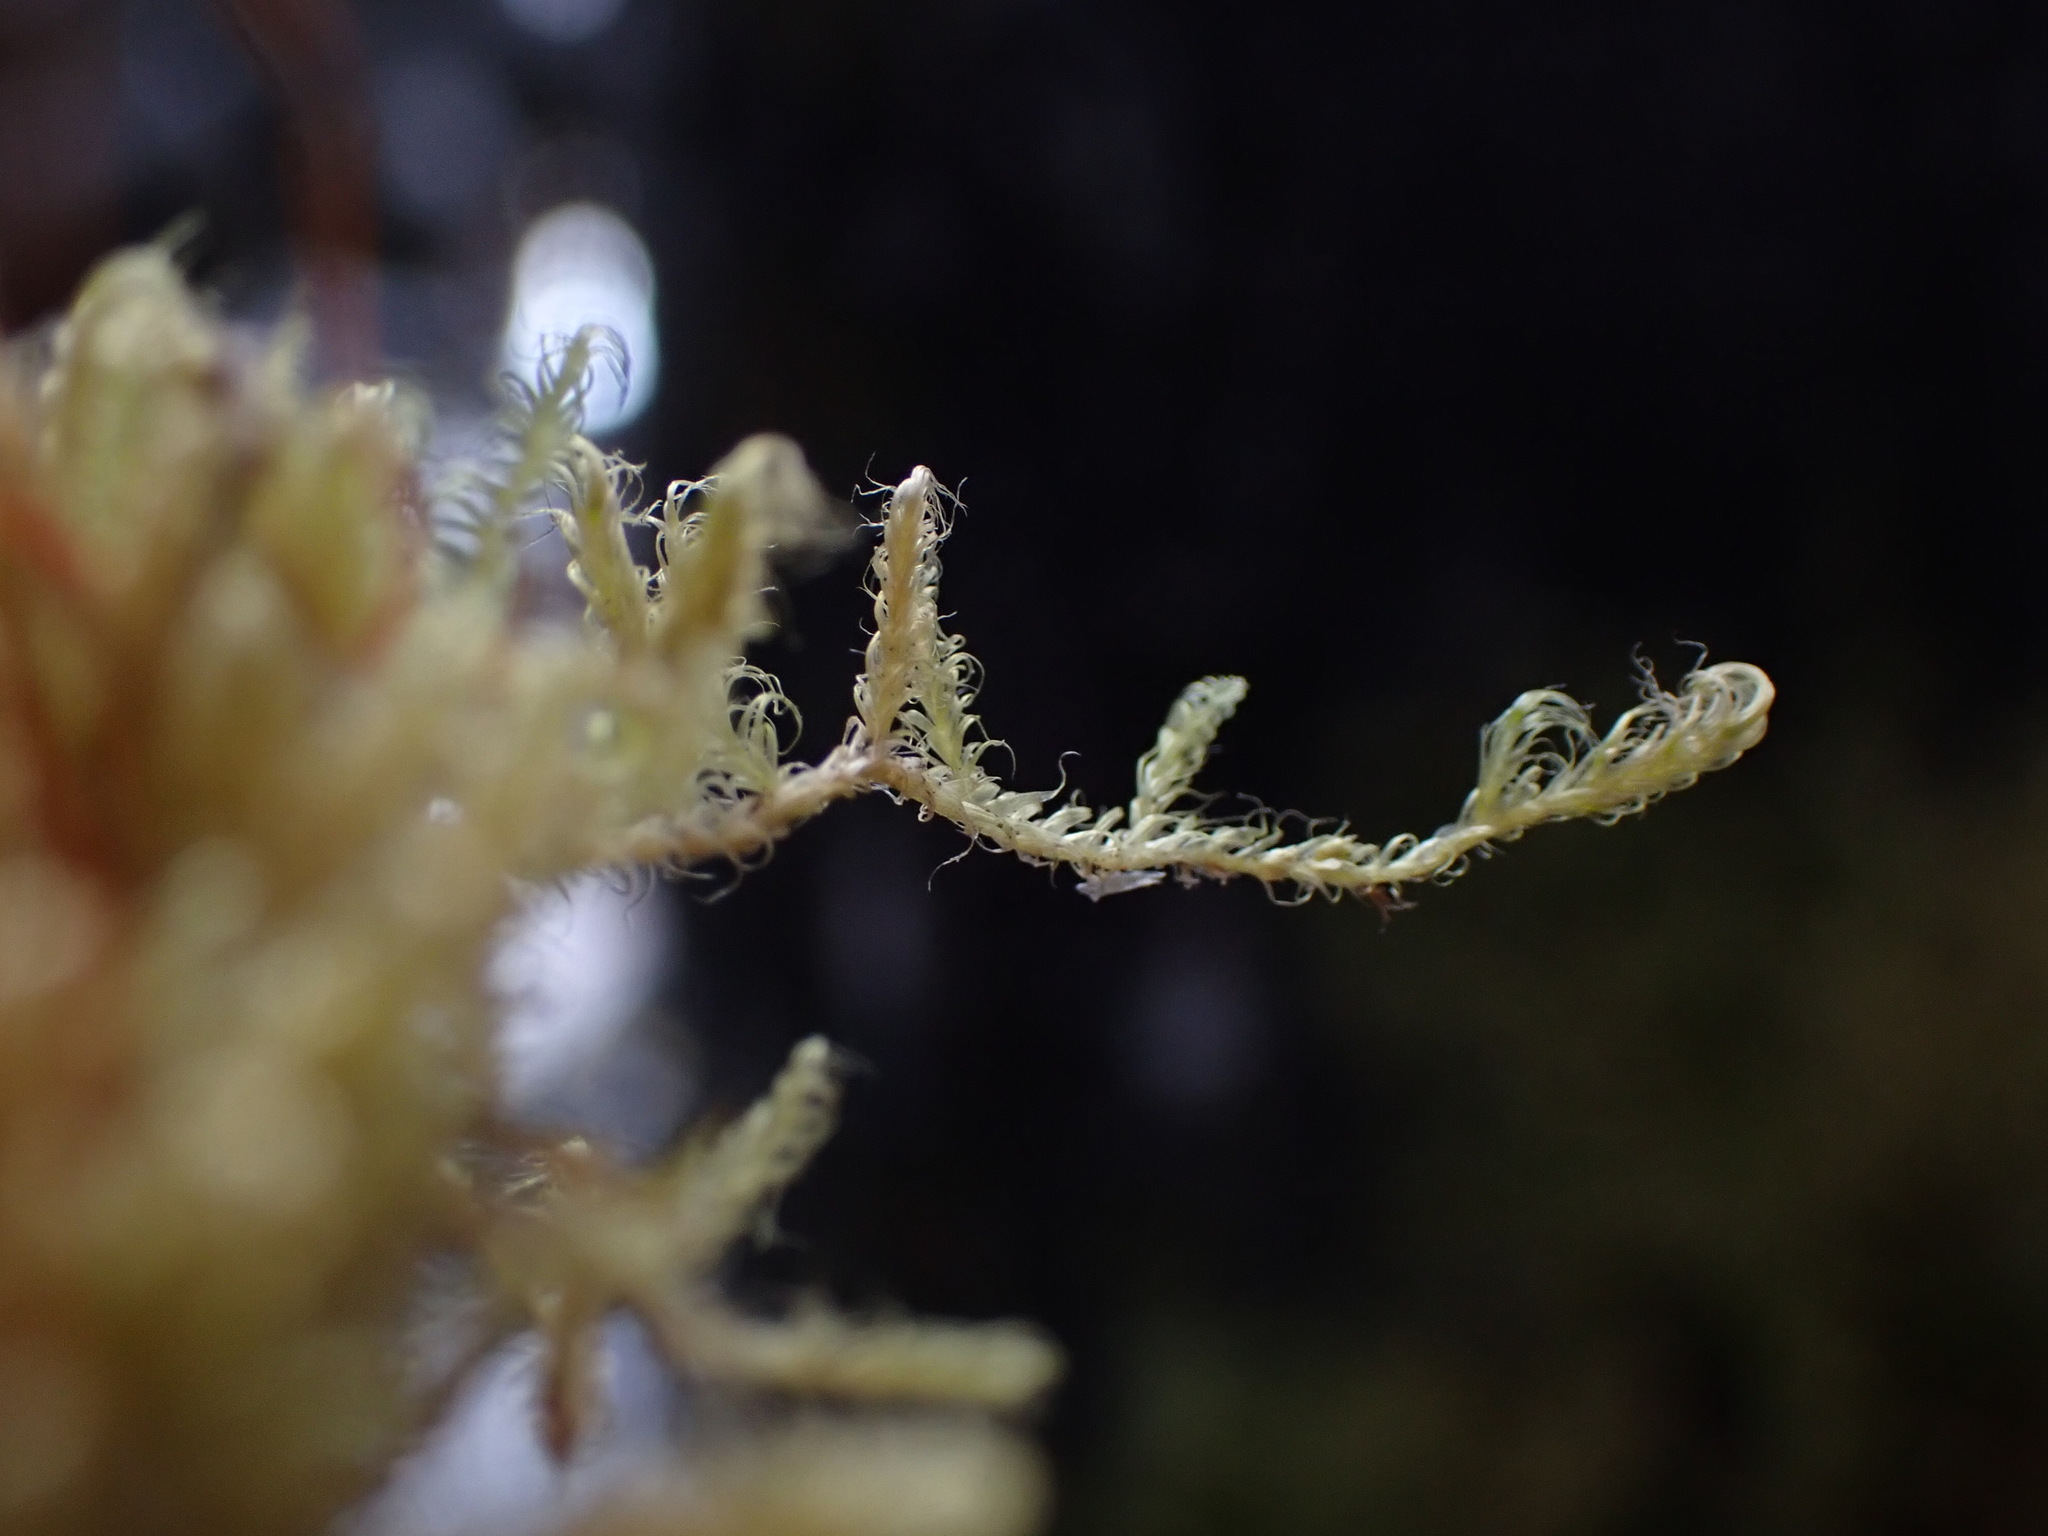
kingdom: Plantae
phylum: Bryophyta
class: Bryopsida
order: Hypnales
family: Scorpidiaceae
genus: Sanionia
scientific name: Sanionia uncinata
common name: Sickle moss
